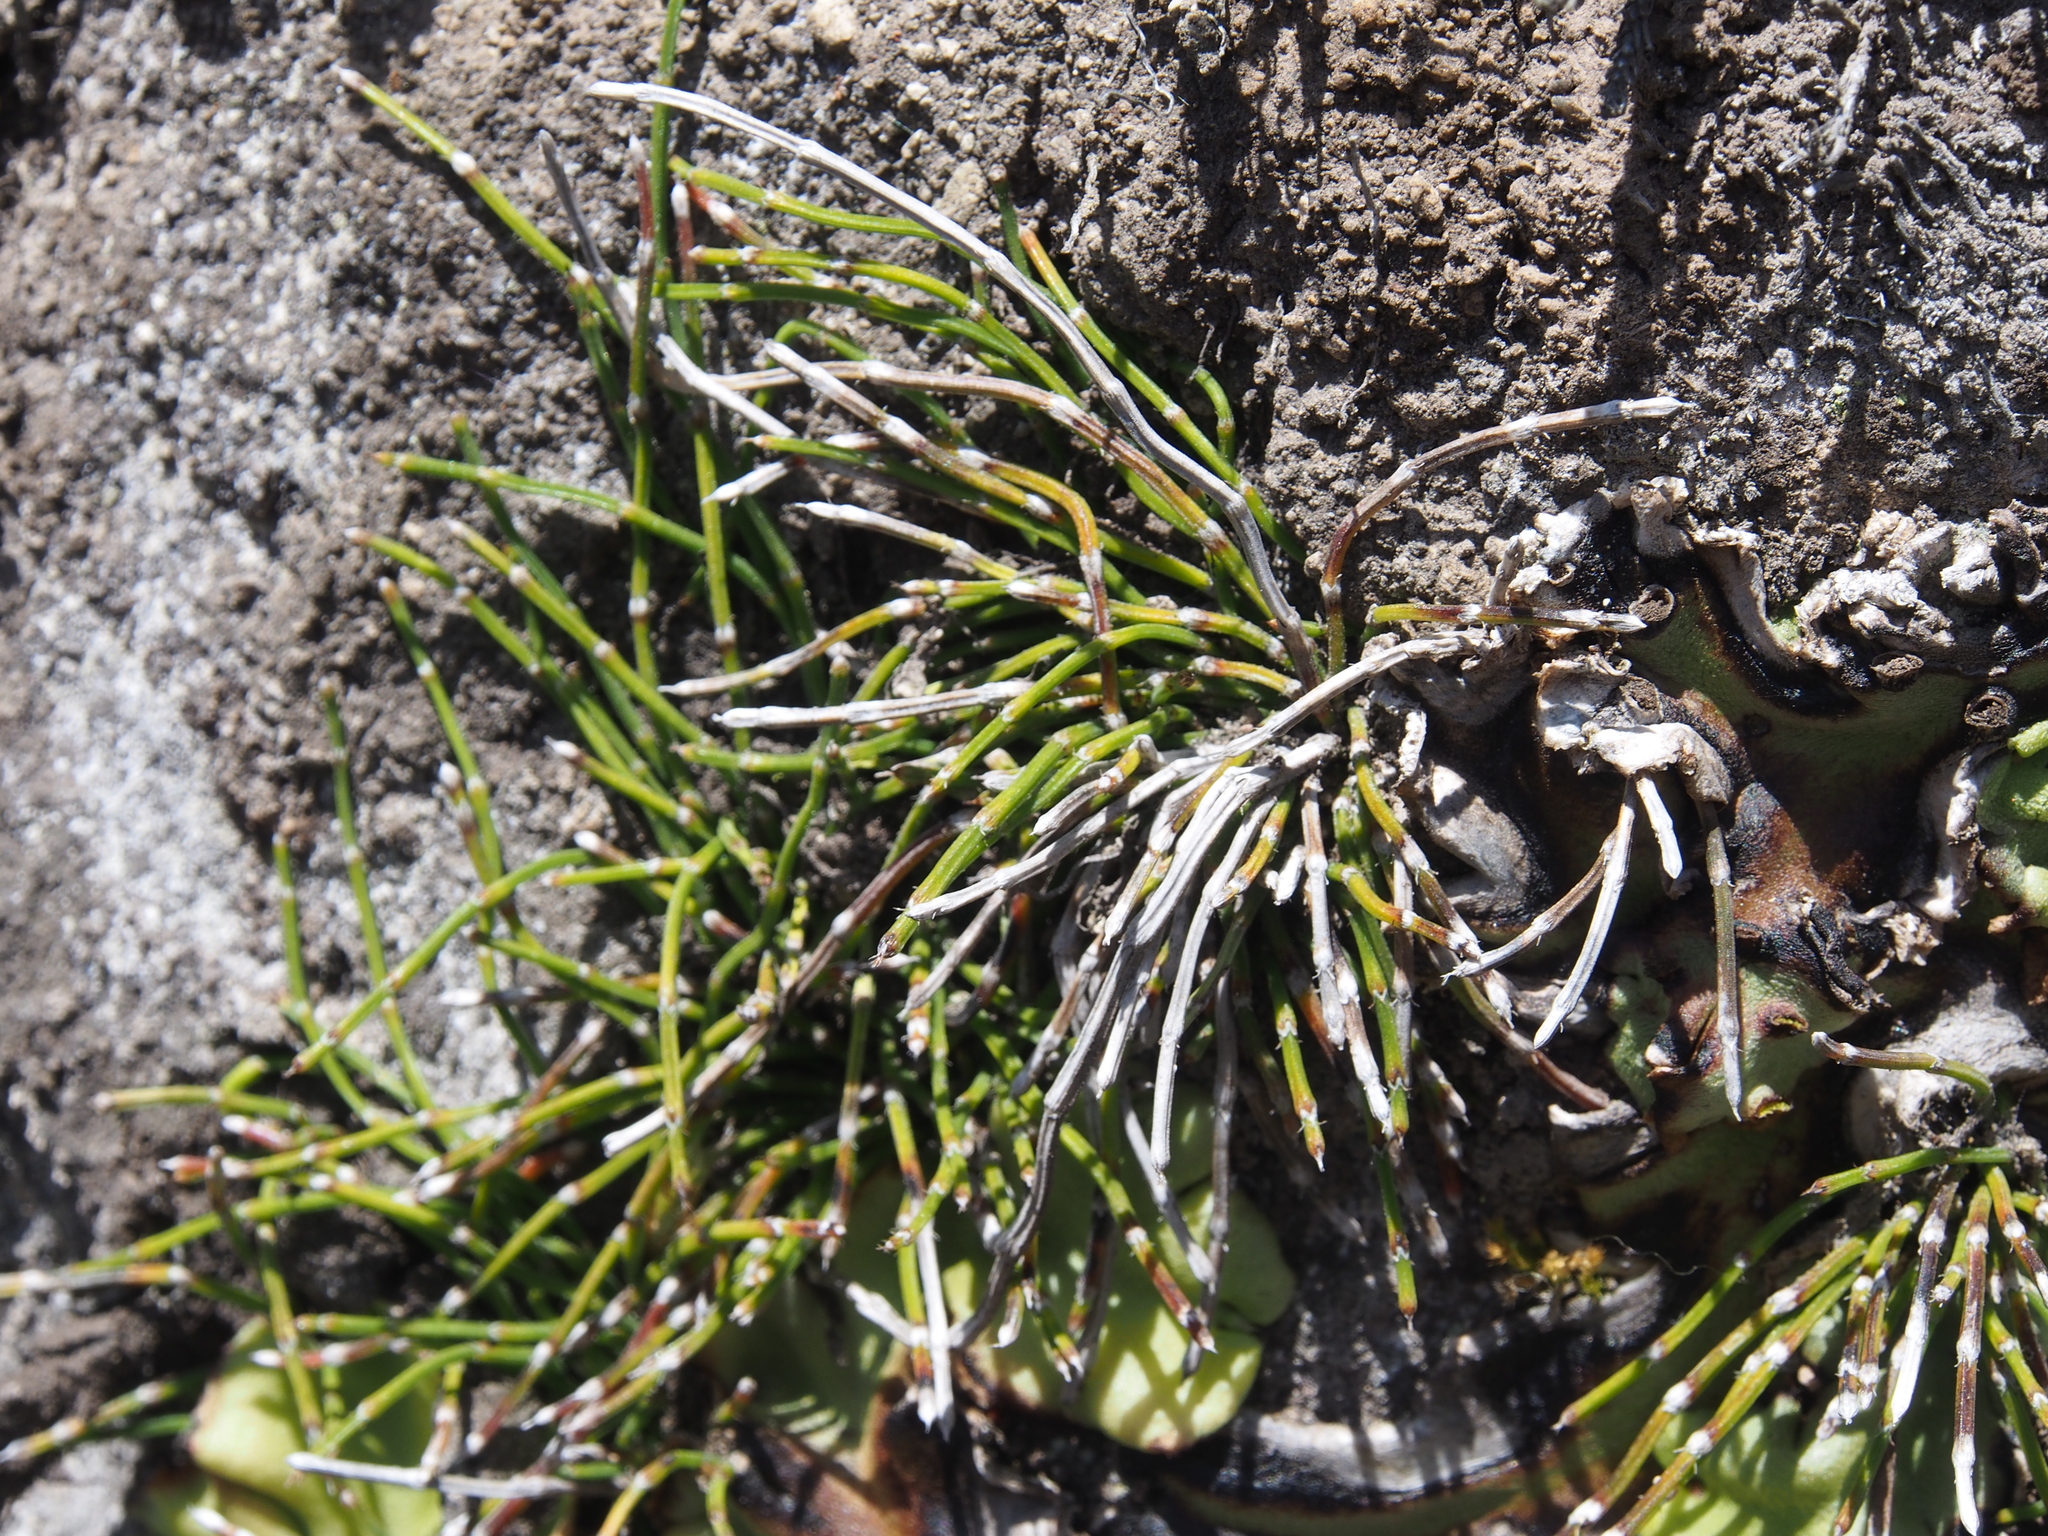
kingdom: Plantae
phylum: Tracheophyta
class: Polypodiopsida
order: Equisetales
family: Equisetaceae
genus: Equisetum
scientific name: Equisetum bogotense
